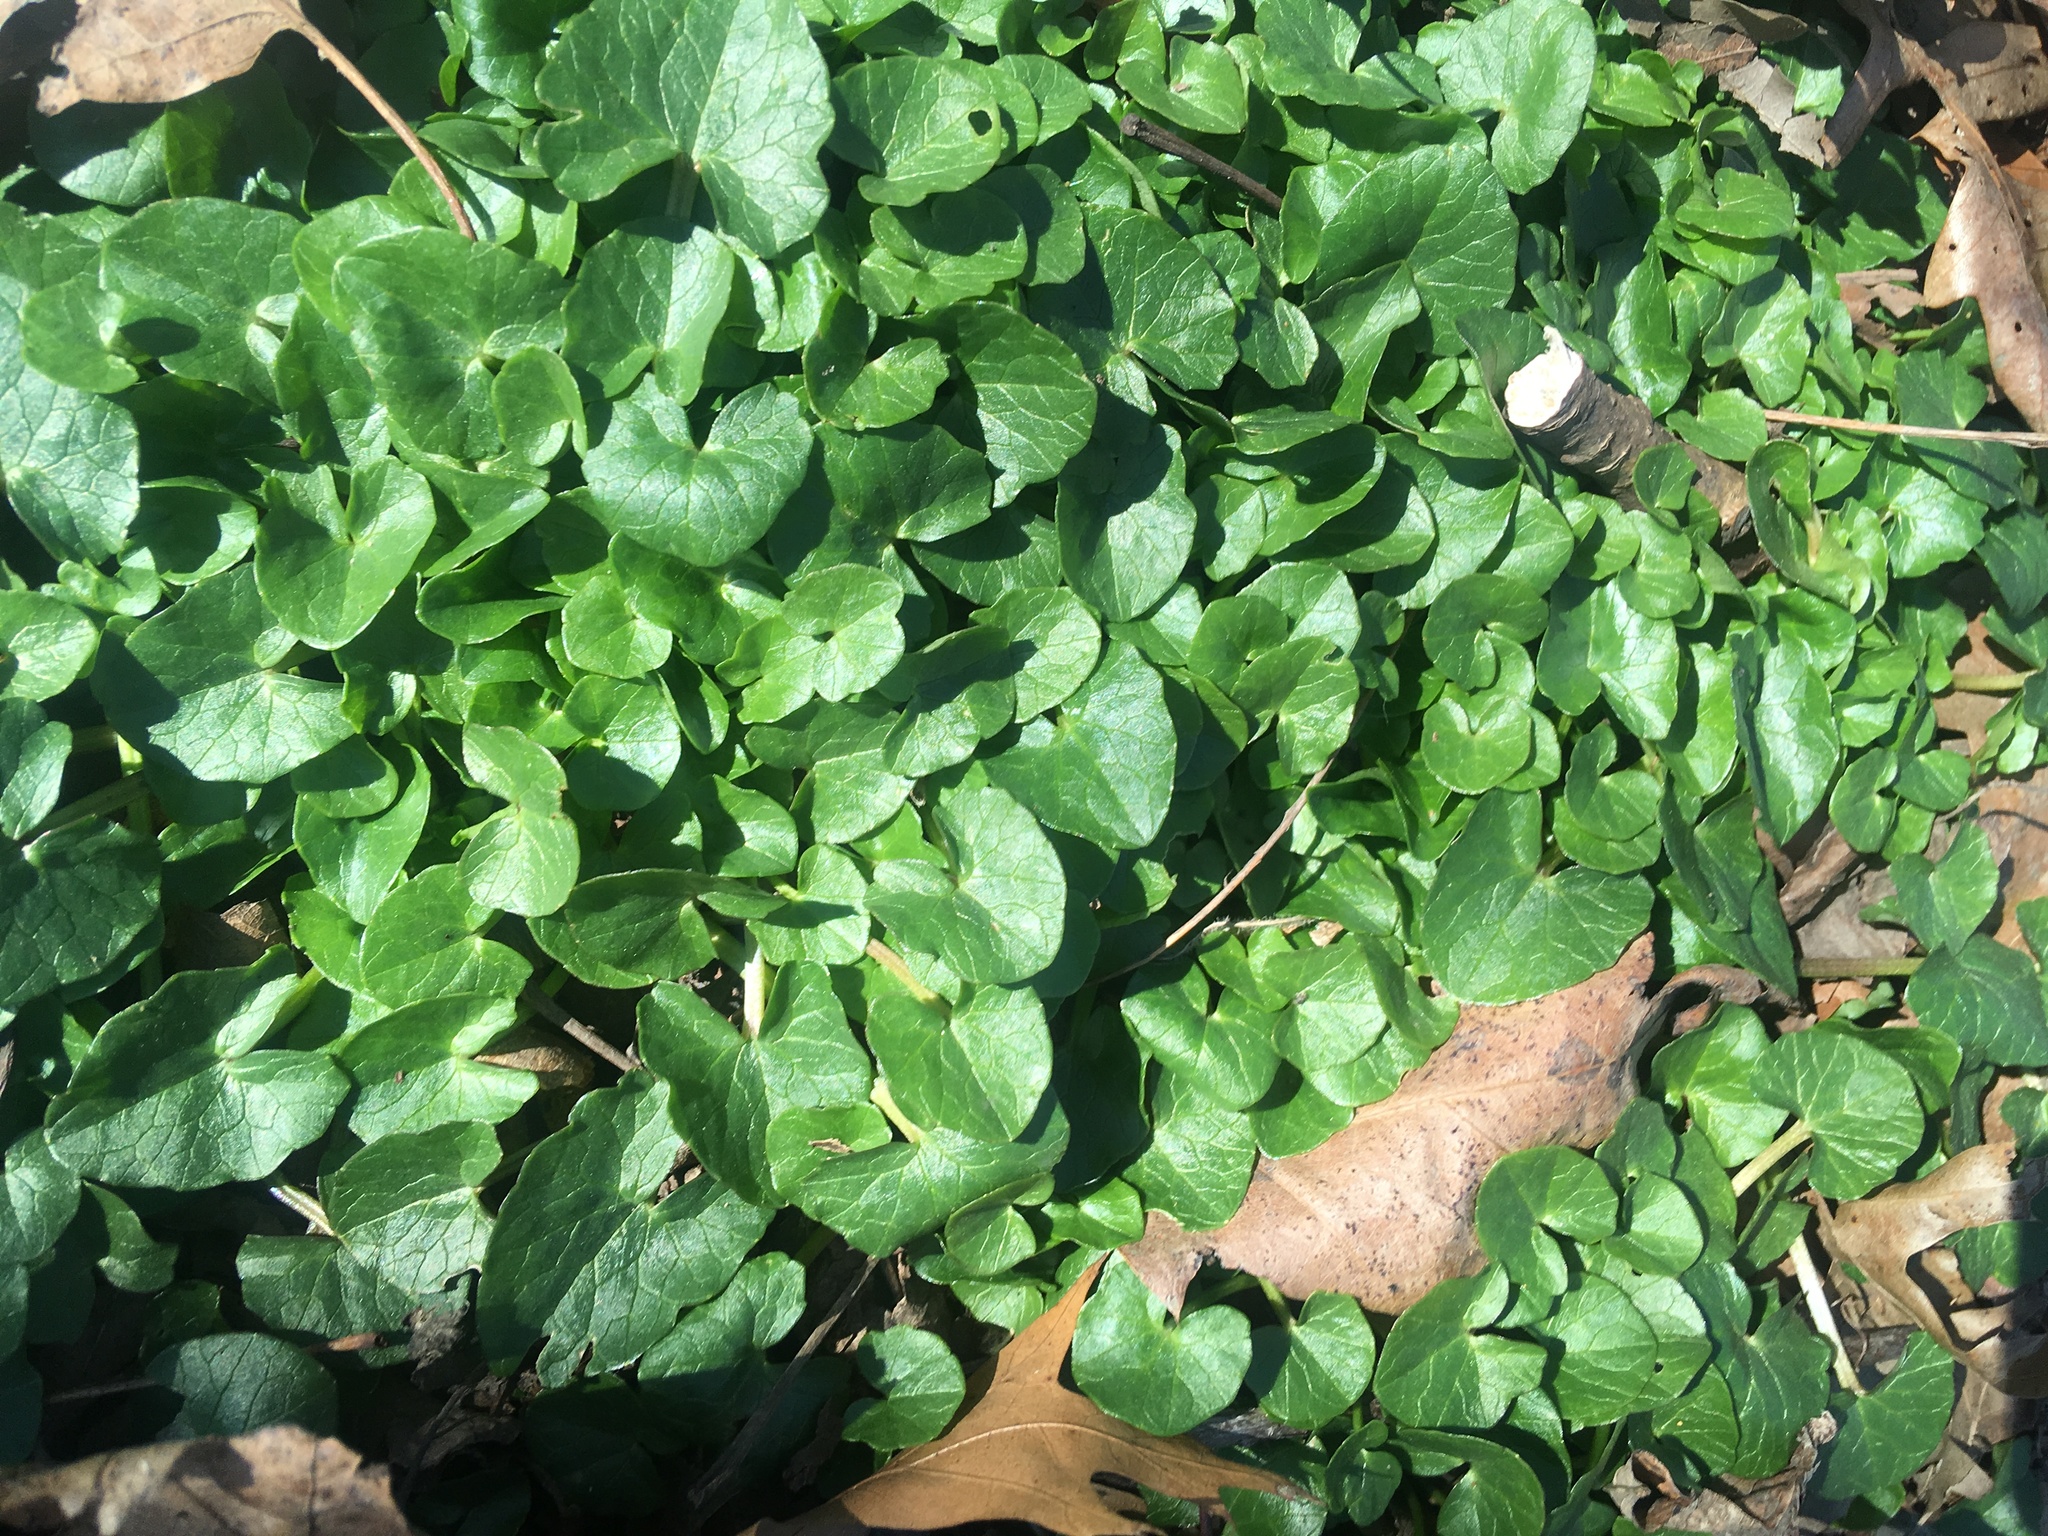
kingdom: Plantae
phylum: Tracheophyta
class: Magnoliopsida
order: Ranunculales
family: Ranunculaceae
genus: Ficaria
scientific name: Ficaria verna
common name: Lesser celandine
